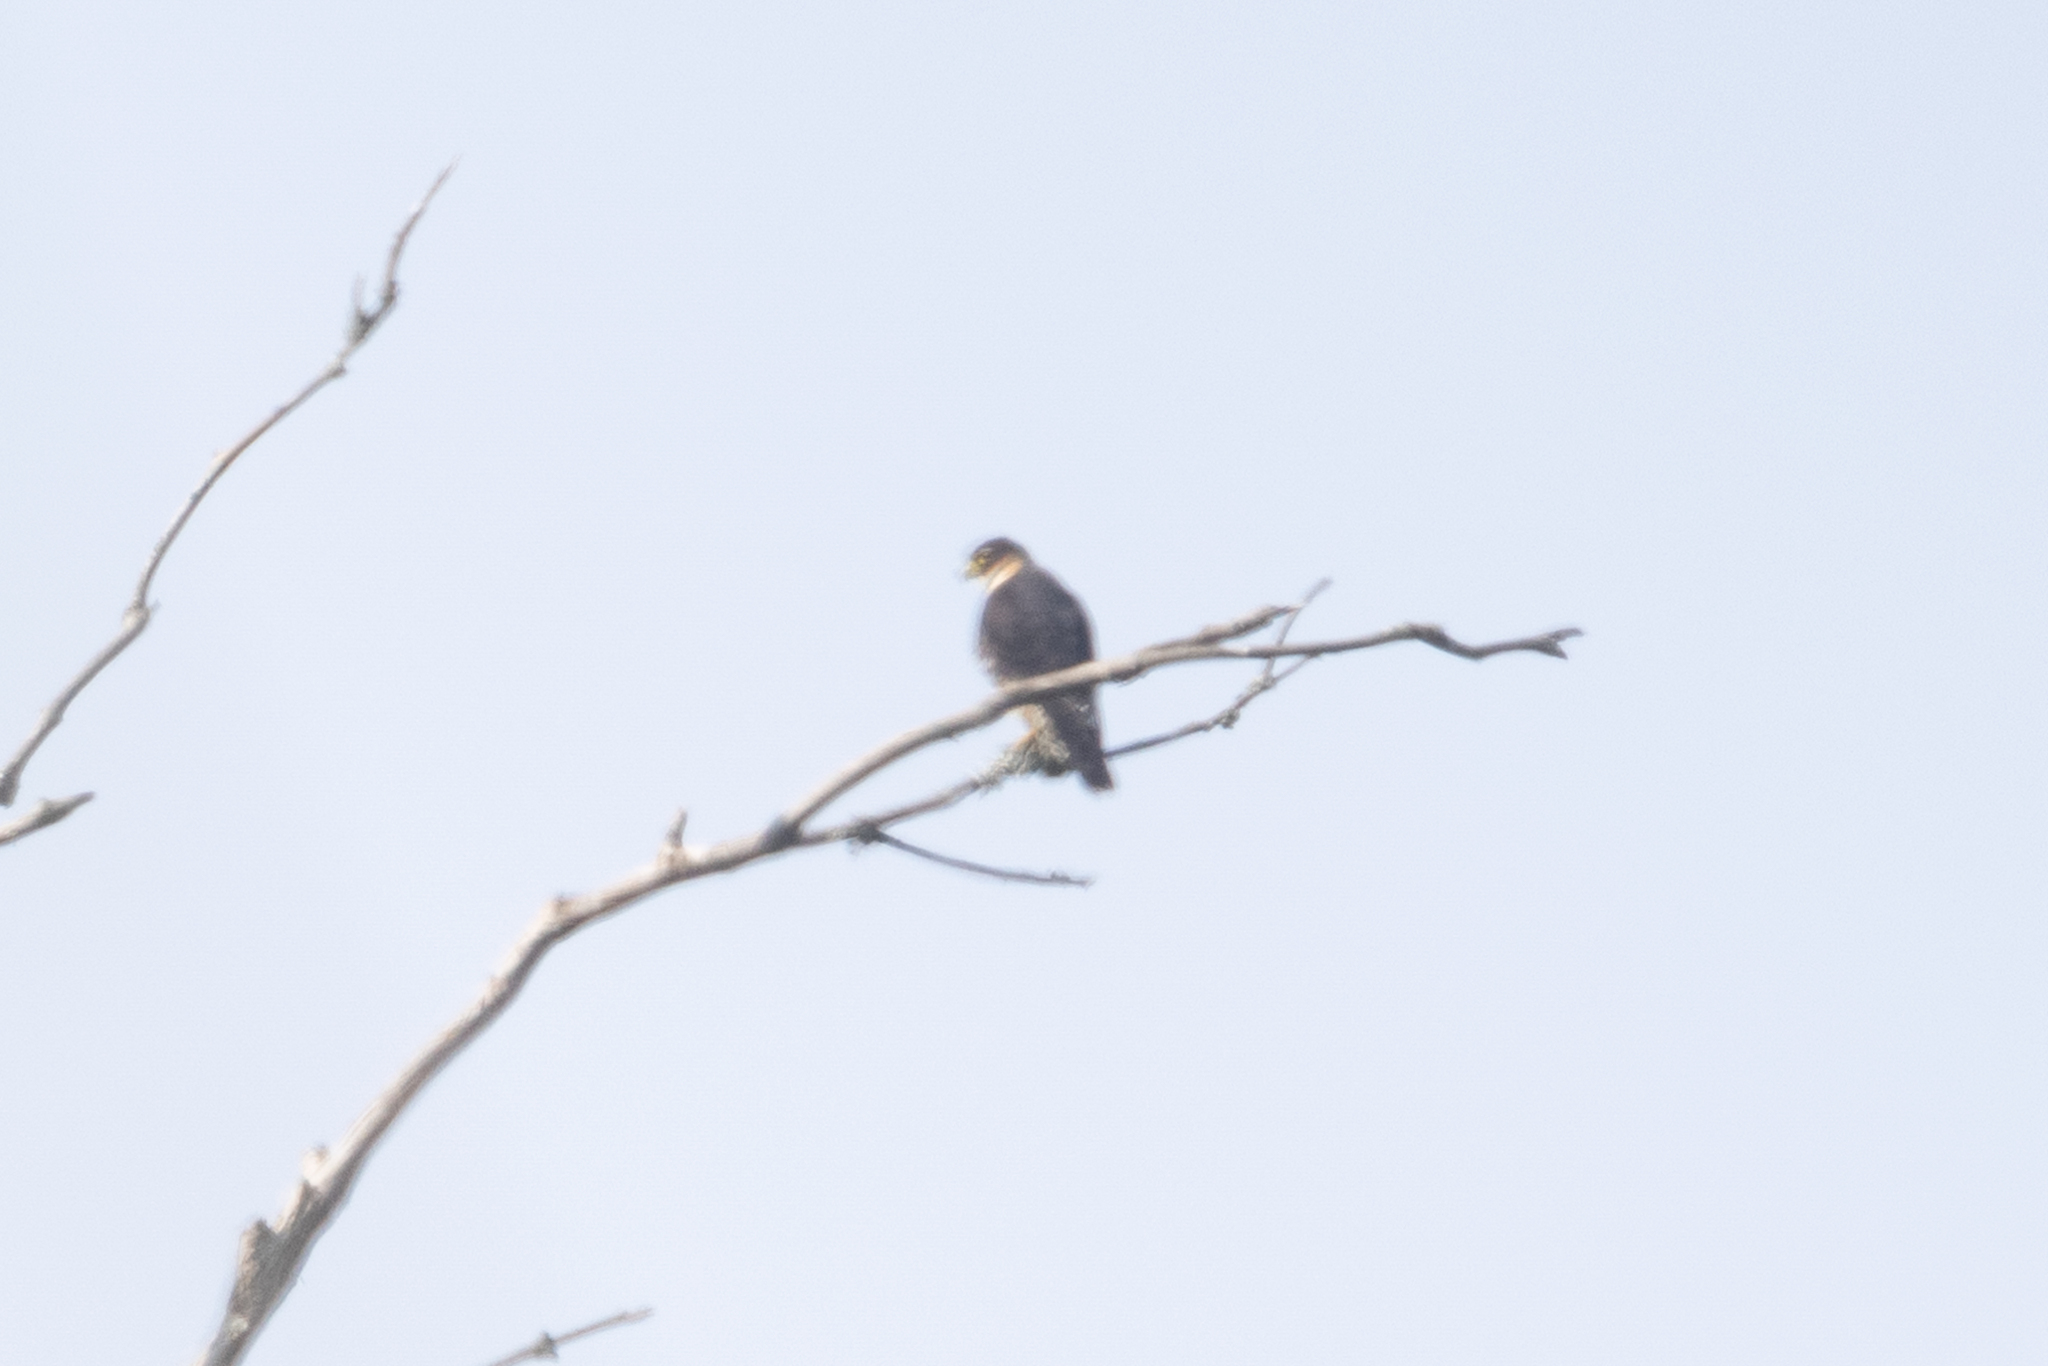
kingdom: Animalia
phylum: Chordata
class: Aves
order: Falconiformes
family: Falconidae
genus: Falco
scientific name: Falco rufigularis
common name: Bat falcon
